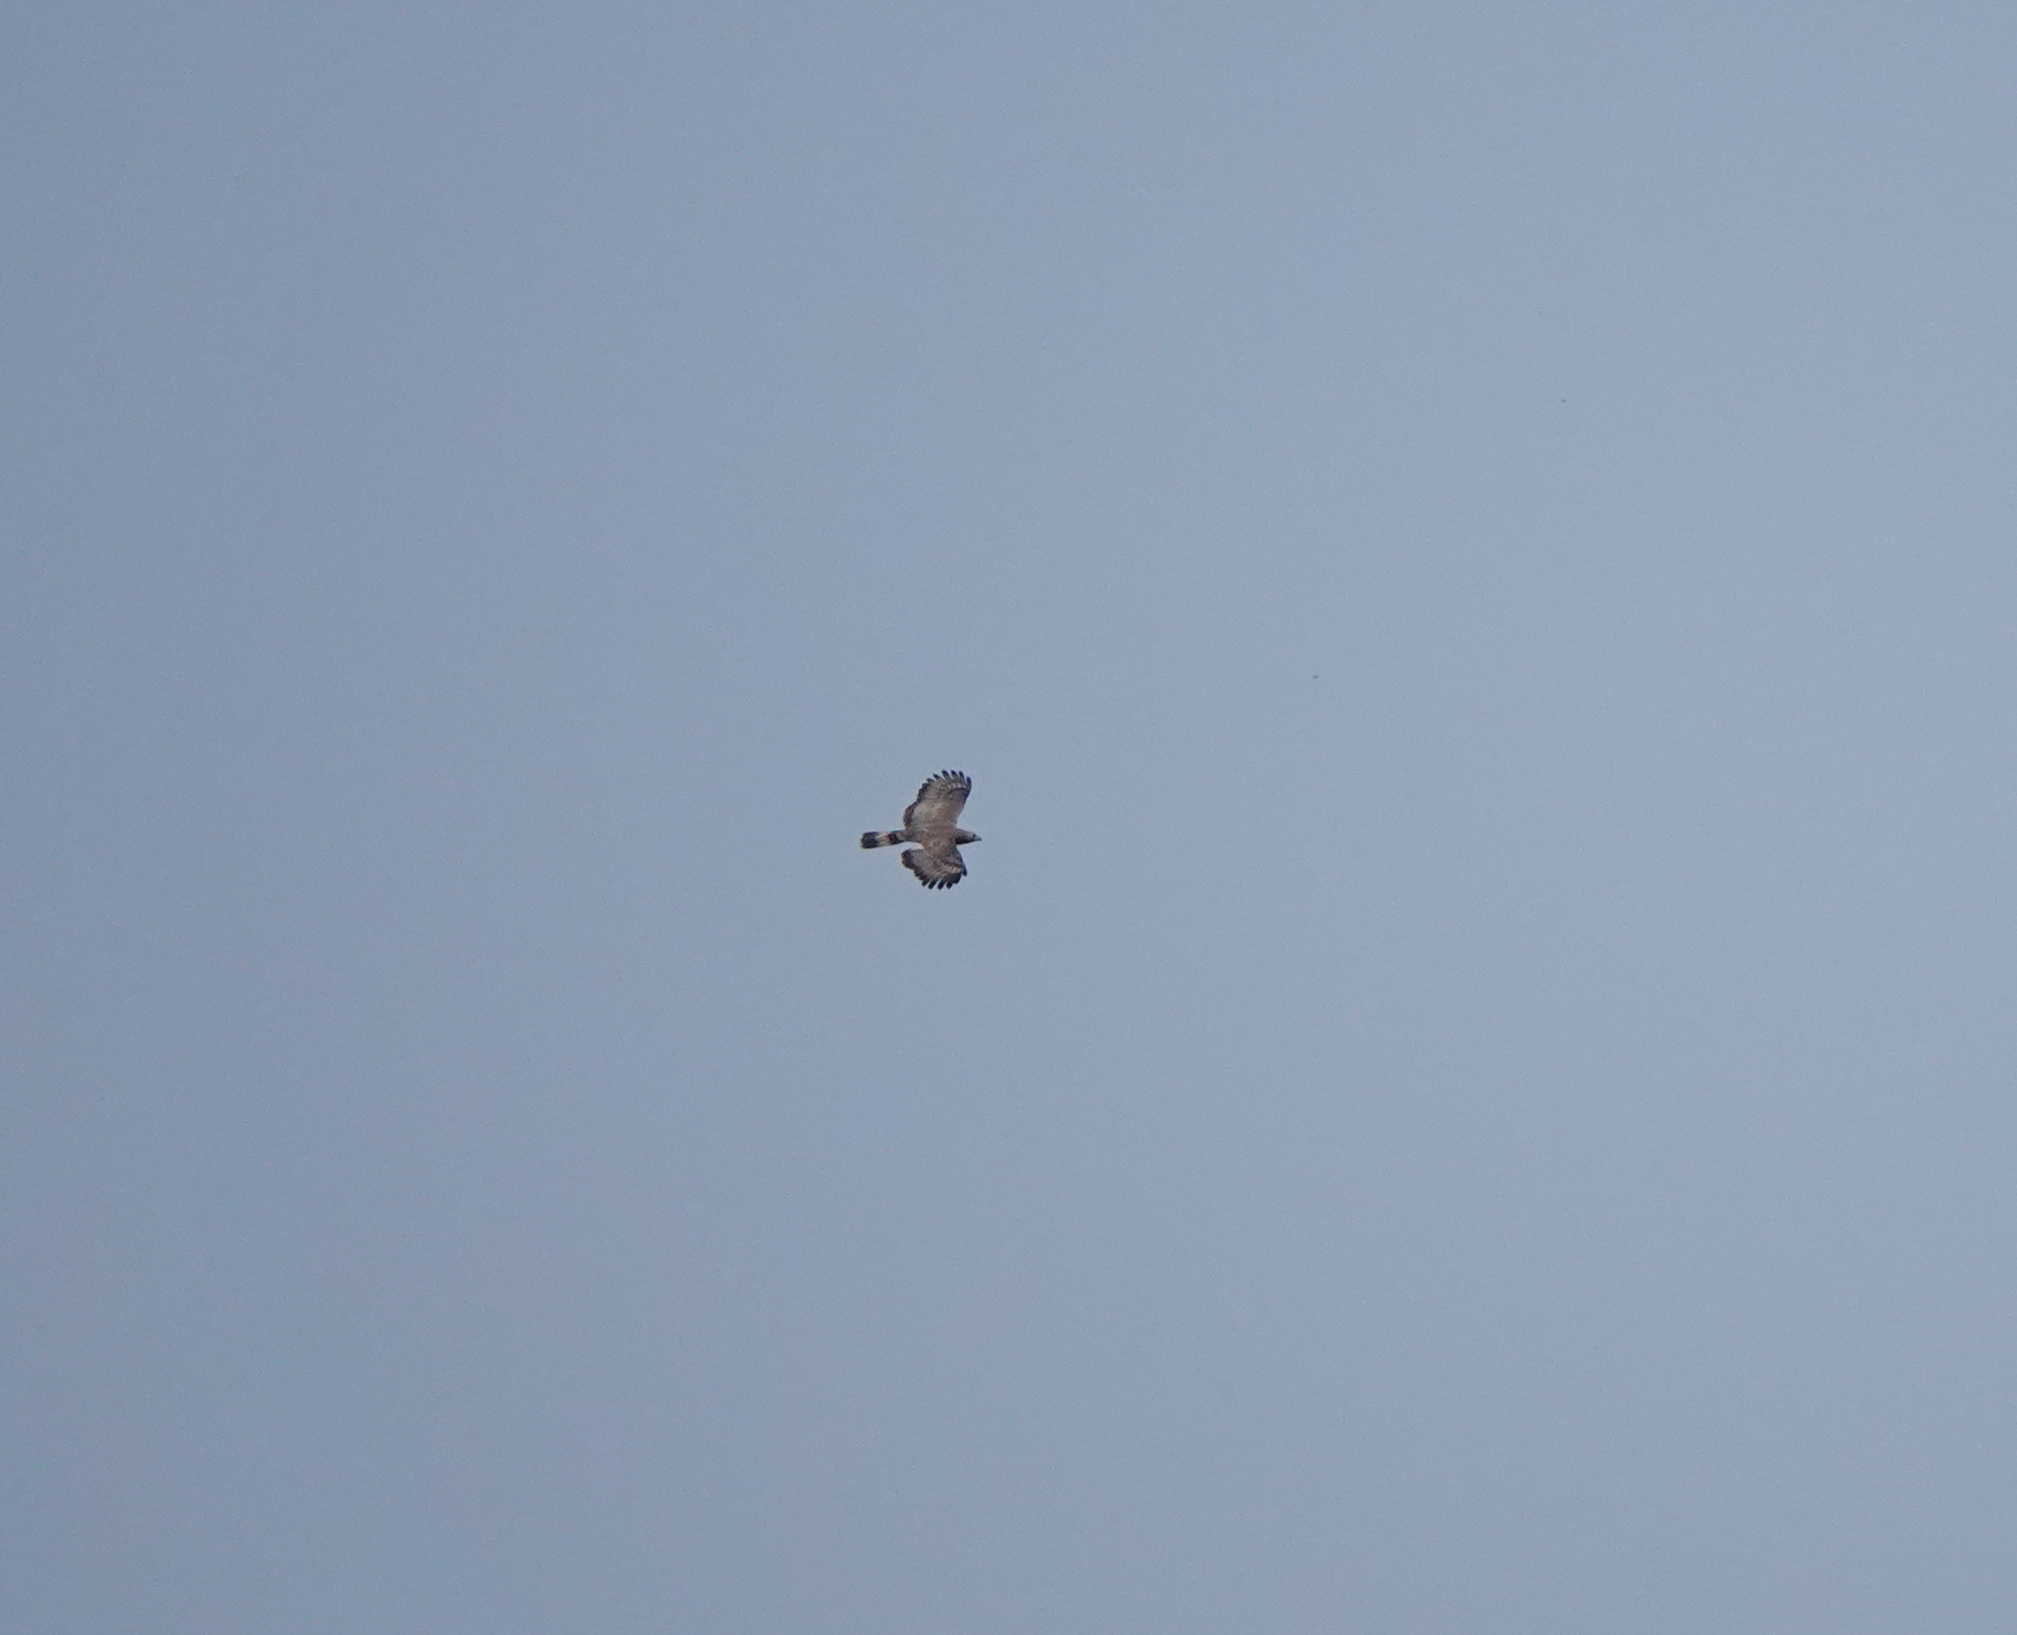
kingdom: Animalia
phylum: Chordata
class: Aves
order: Accipitriformes
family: Accipitridae
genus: Pernis
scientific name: Pernis ptilorhynchus
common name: Crested honey buzzard
